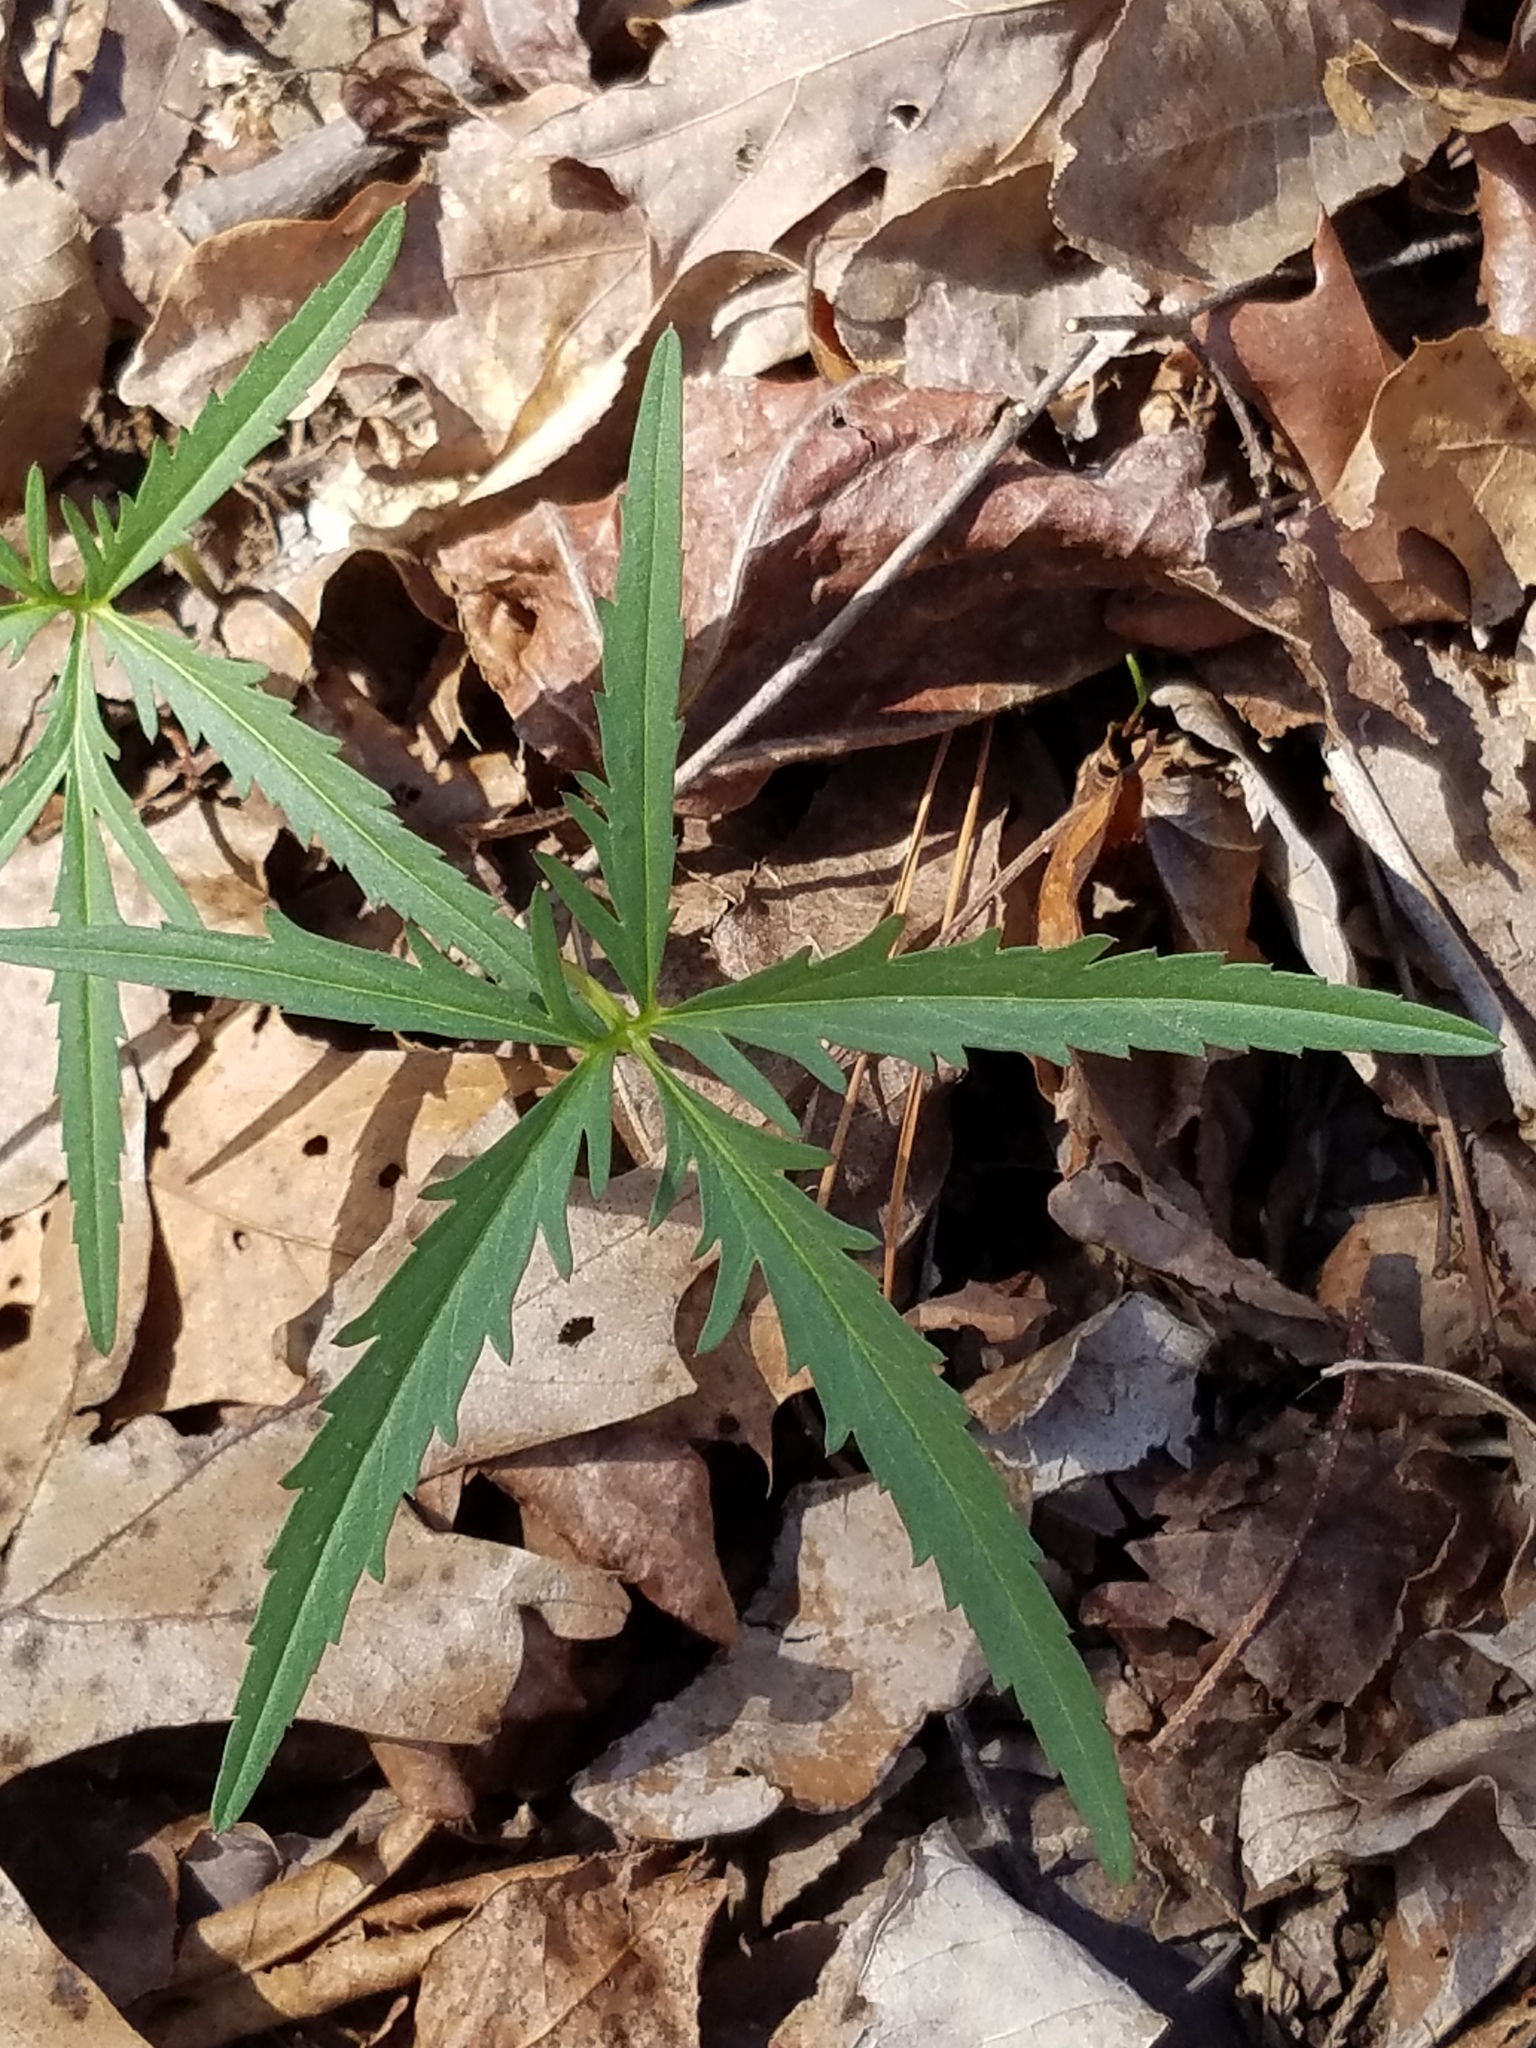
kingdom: Plantae
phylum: Tracheophyta
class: Magnoliopsida
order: Brassicales
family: Brassicaceae
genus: Cardamine
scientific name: Cardamine concatenata
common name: Cut-leaf toothcup
